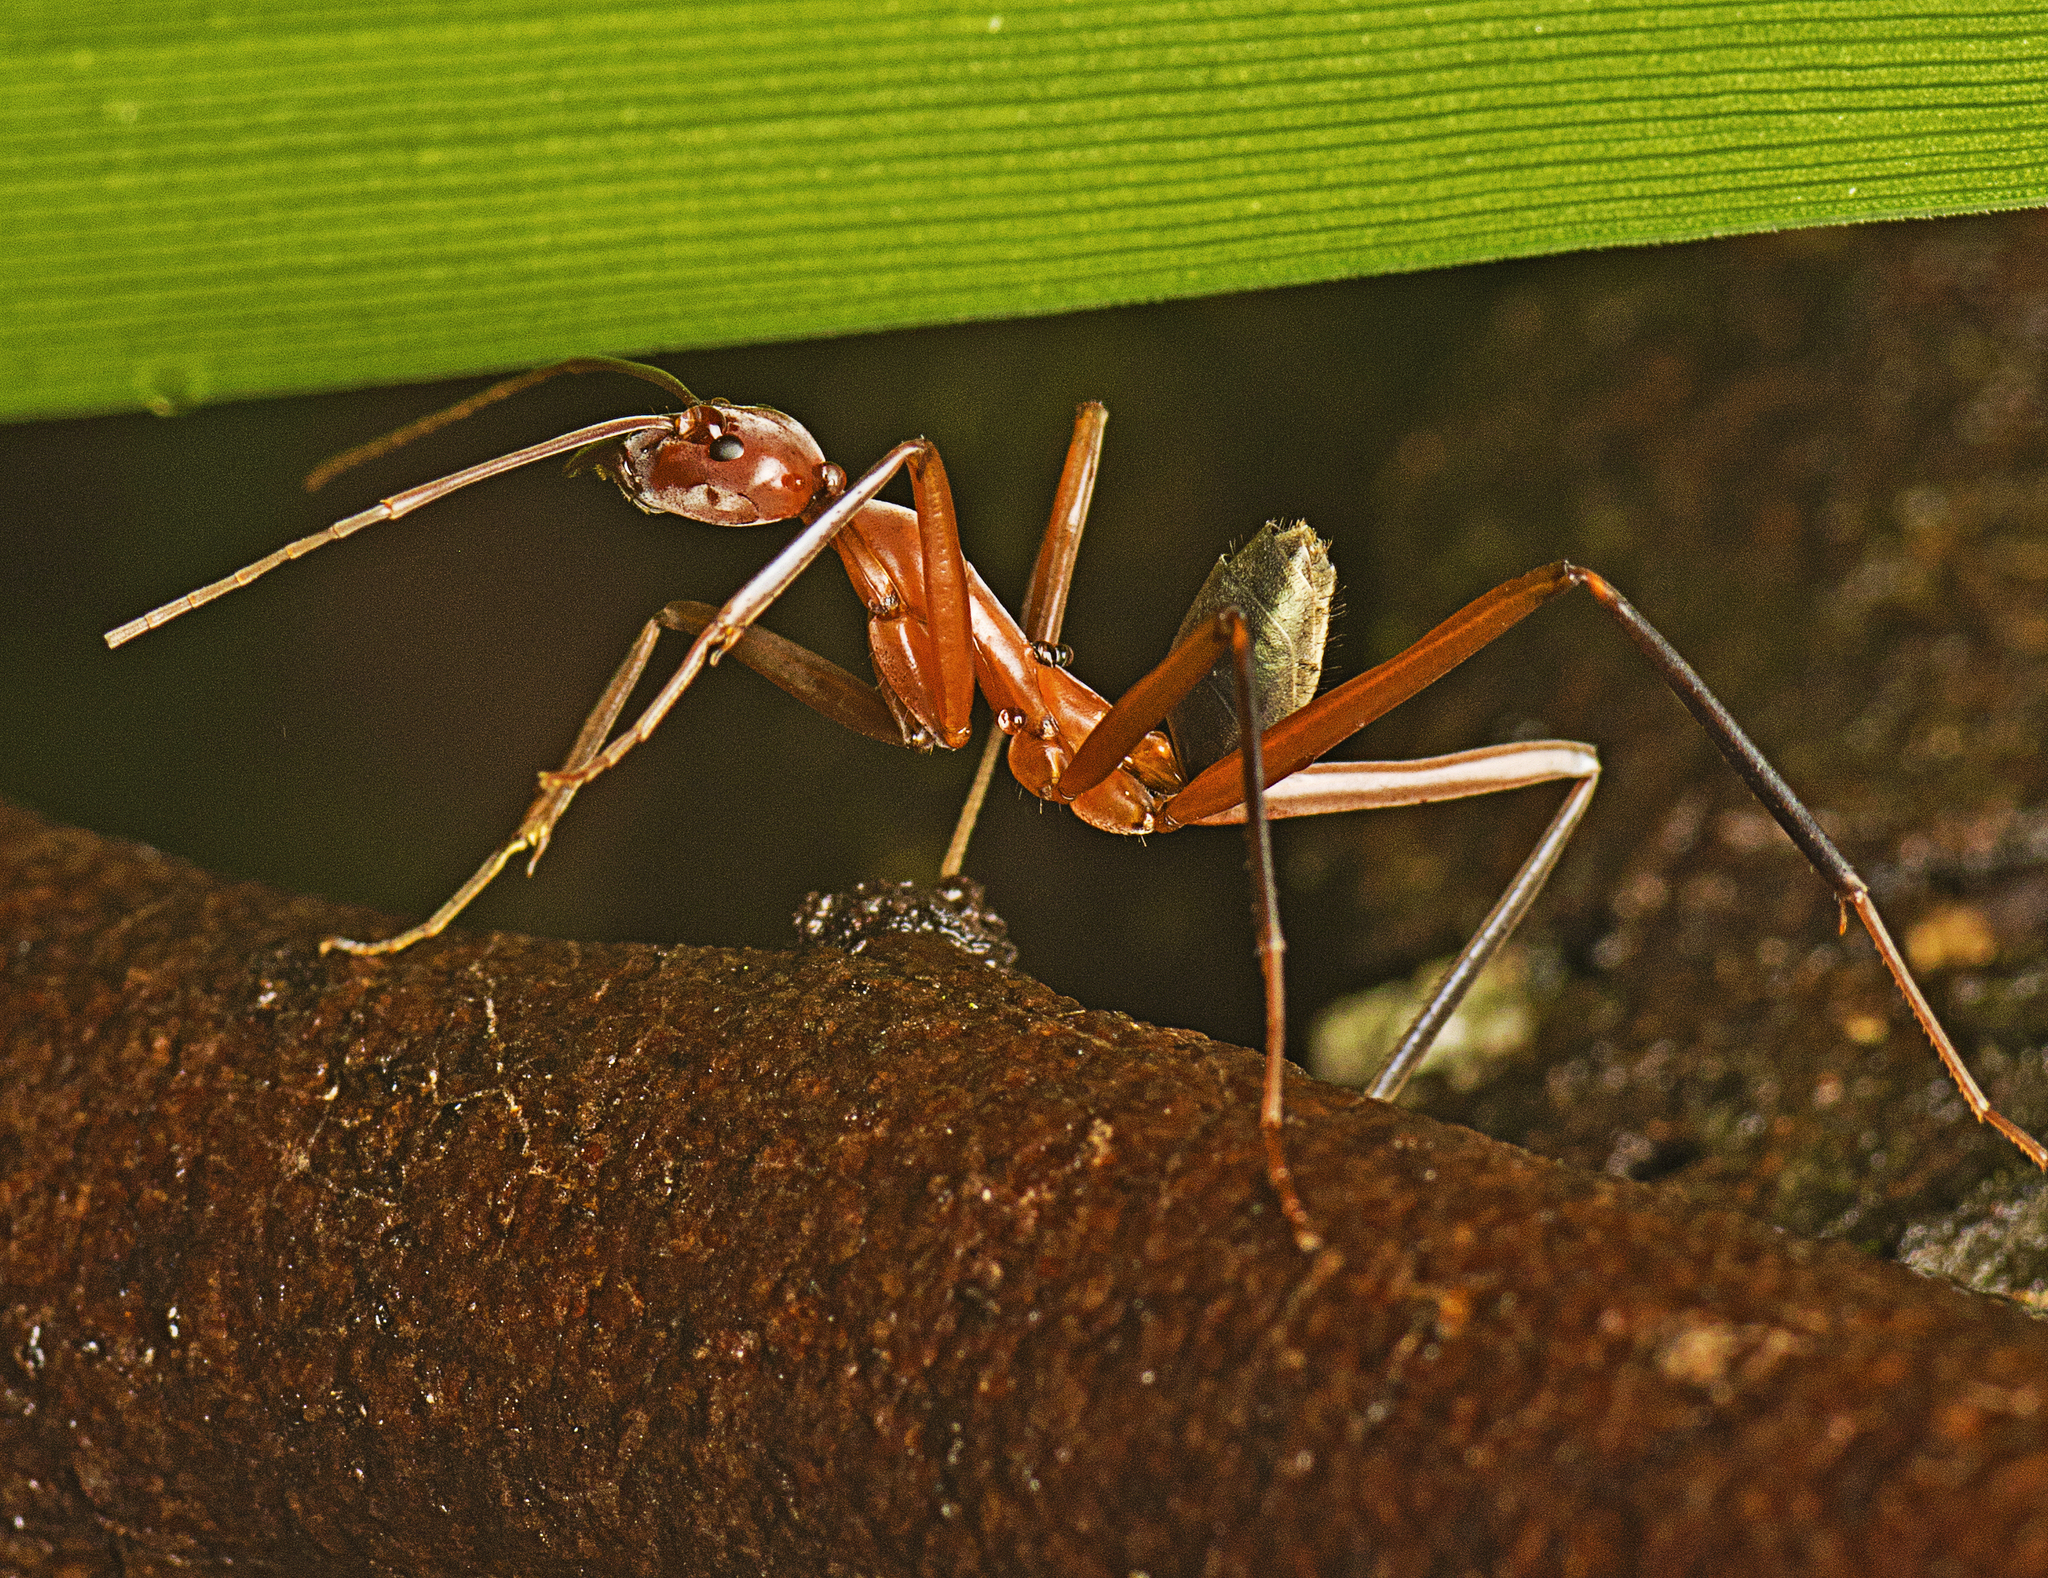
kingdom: Animalia
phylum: Arthropoda
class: Insecta
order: Hymenoptera
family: Formicidae
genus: Leptomyrmex
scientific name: Leptomyrmex tibialis
